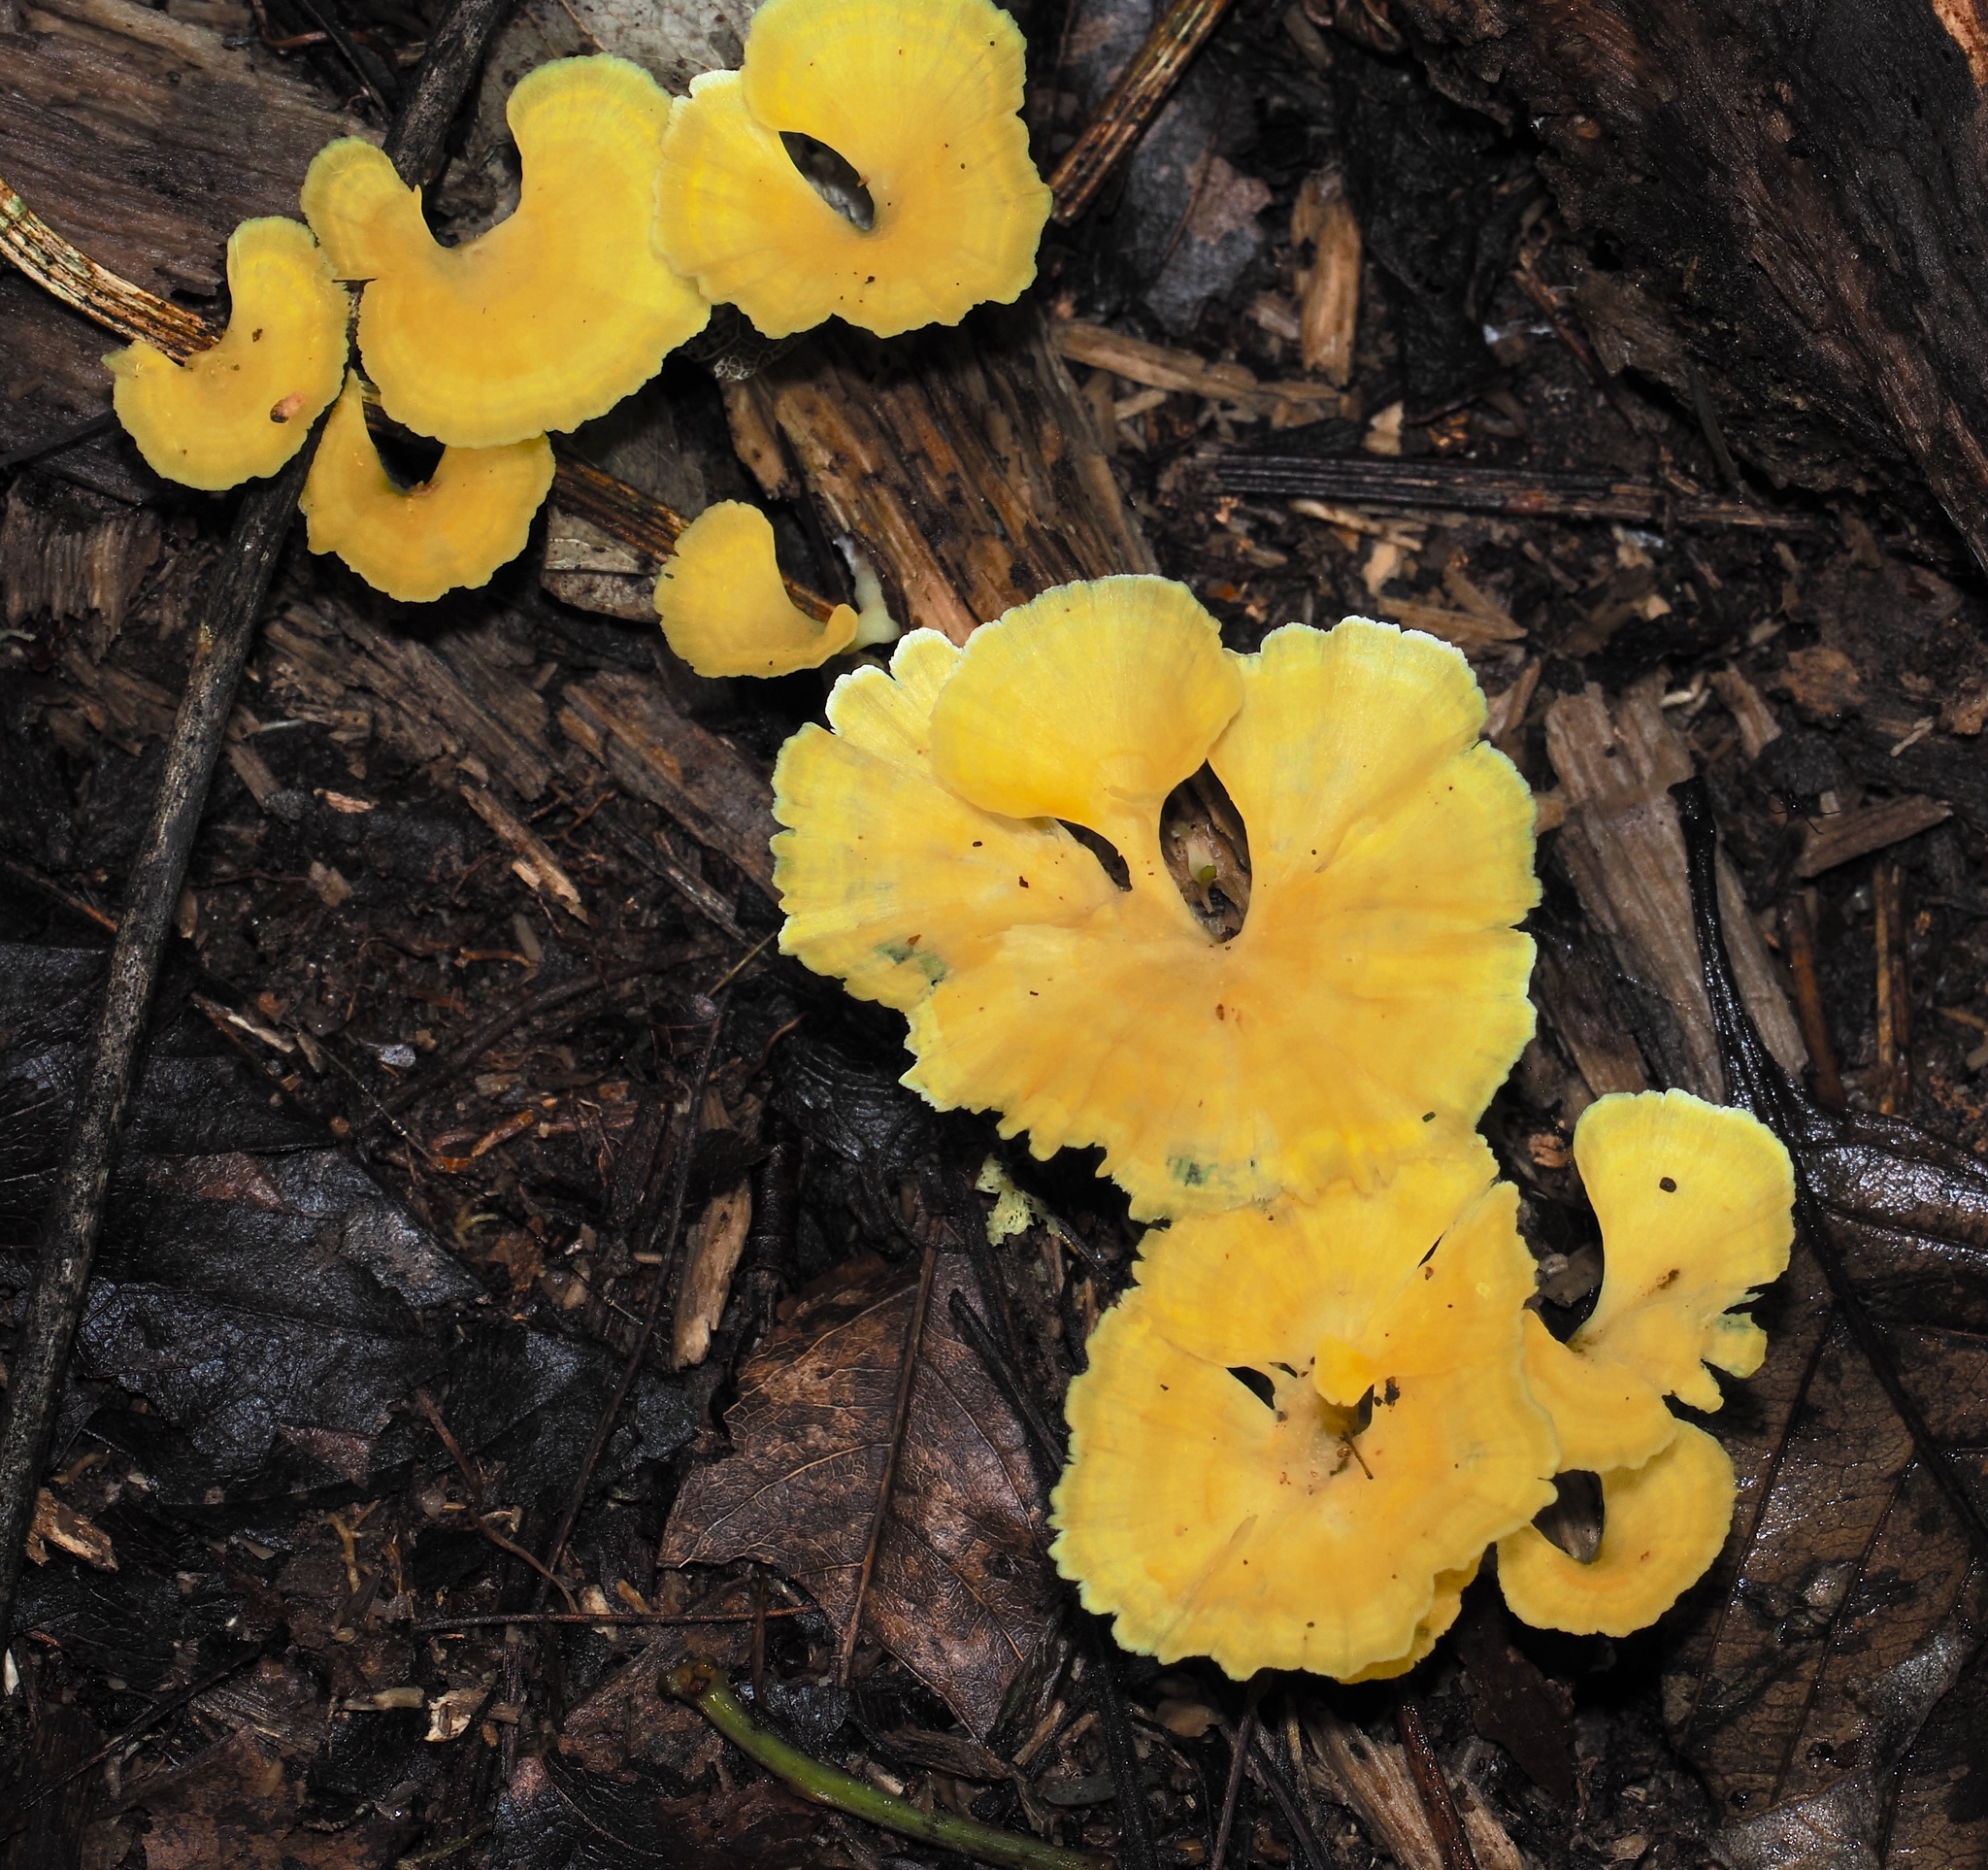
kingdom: Fungi
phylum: Basidiomycota
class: Agaricomycetes
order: Hymenochaetales
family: Rickenellaceae
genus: Cotylidia
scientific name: Cotylidia aurantiaca
